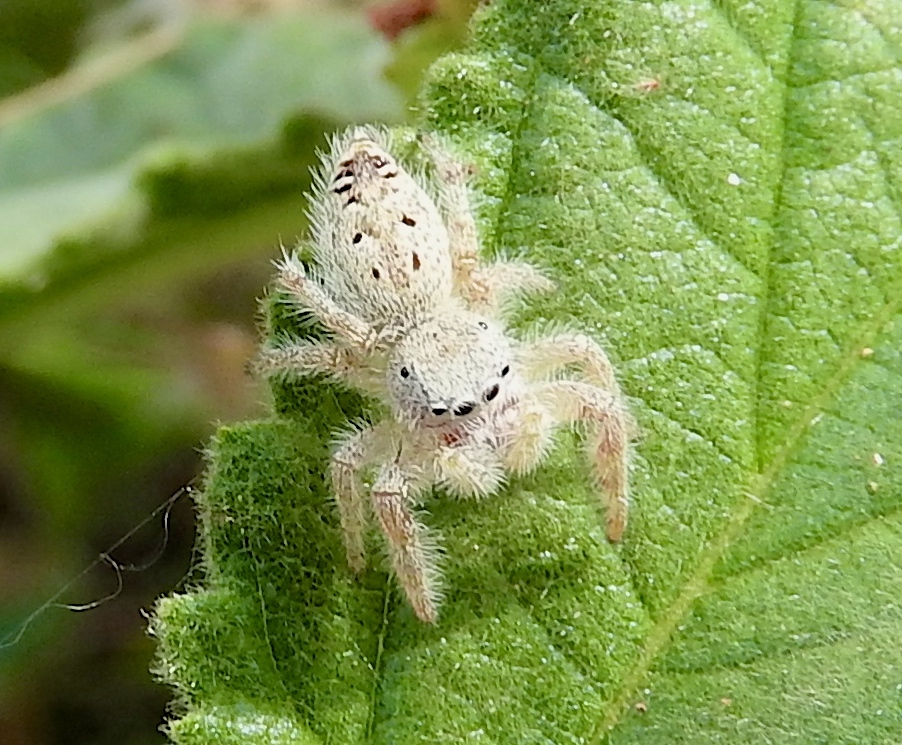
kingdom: Animalia
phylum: Arthropoda
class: Arachnida
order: Araneae
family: Salticidae
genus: Paraphidippus
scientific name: Paraphidippus fartilis
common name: Jumping spiders
